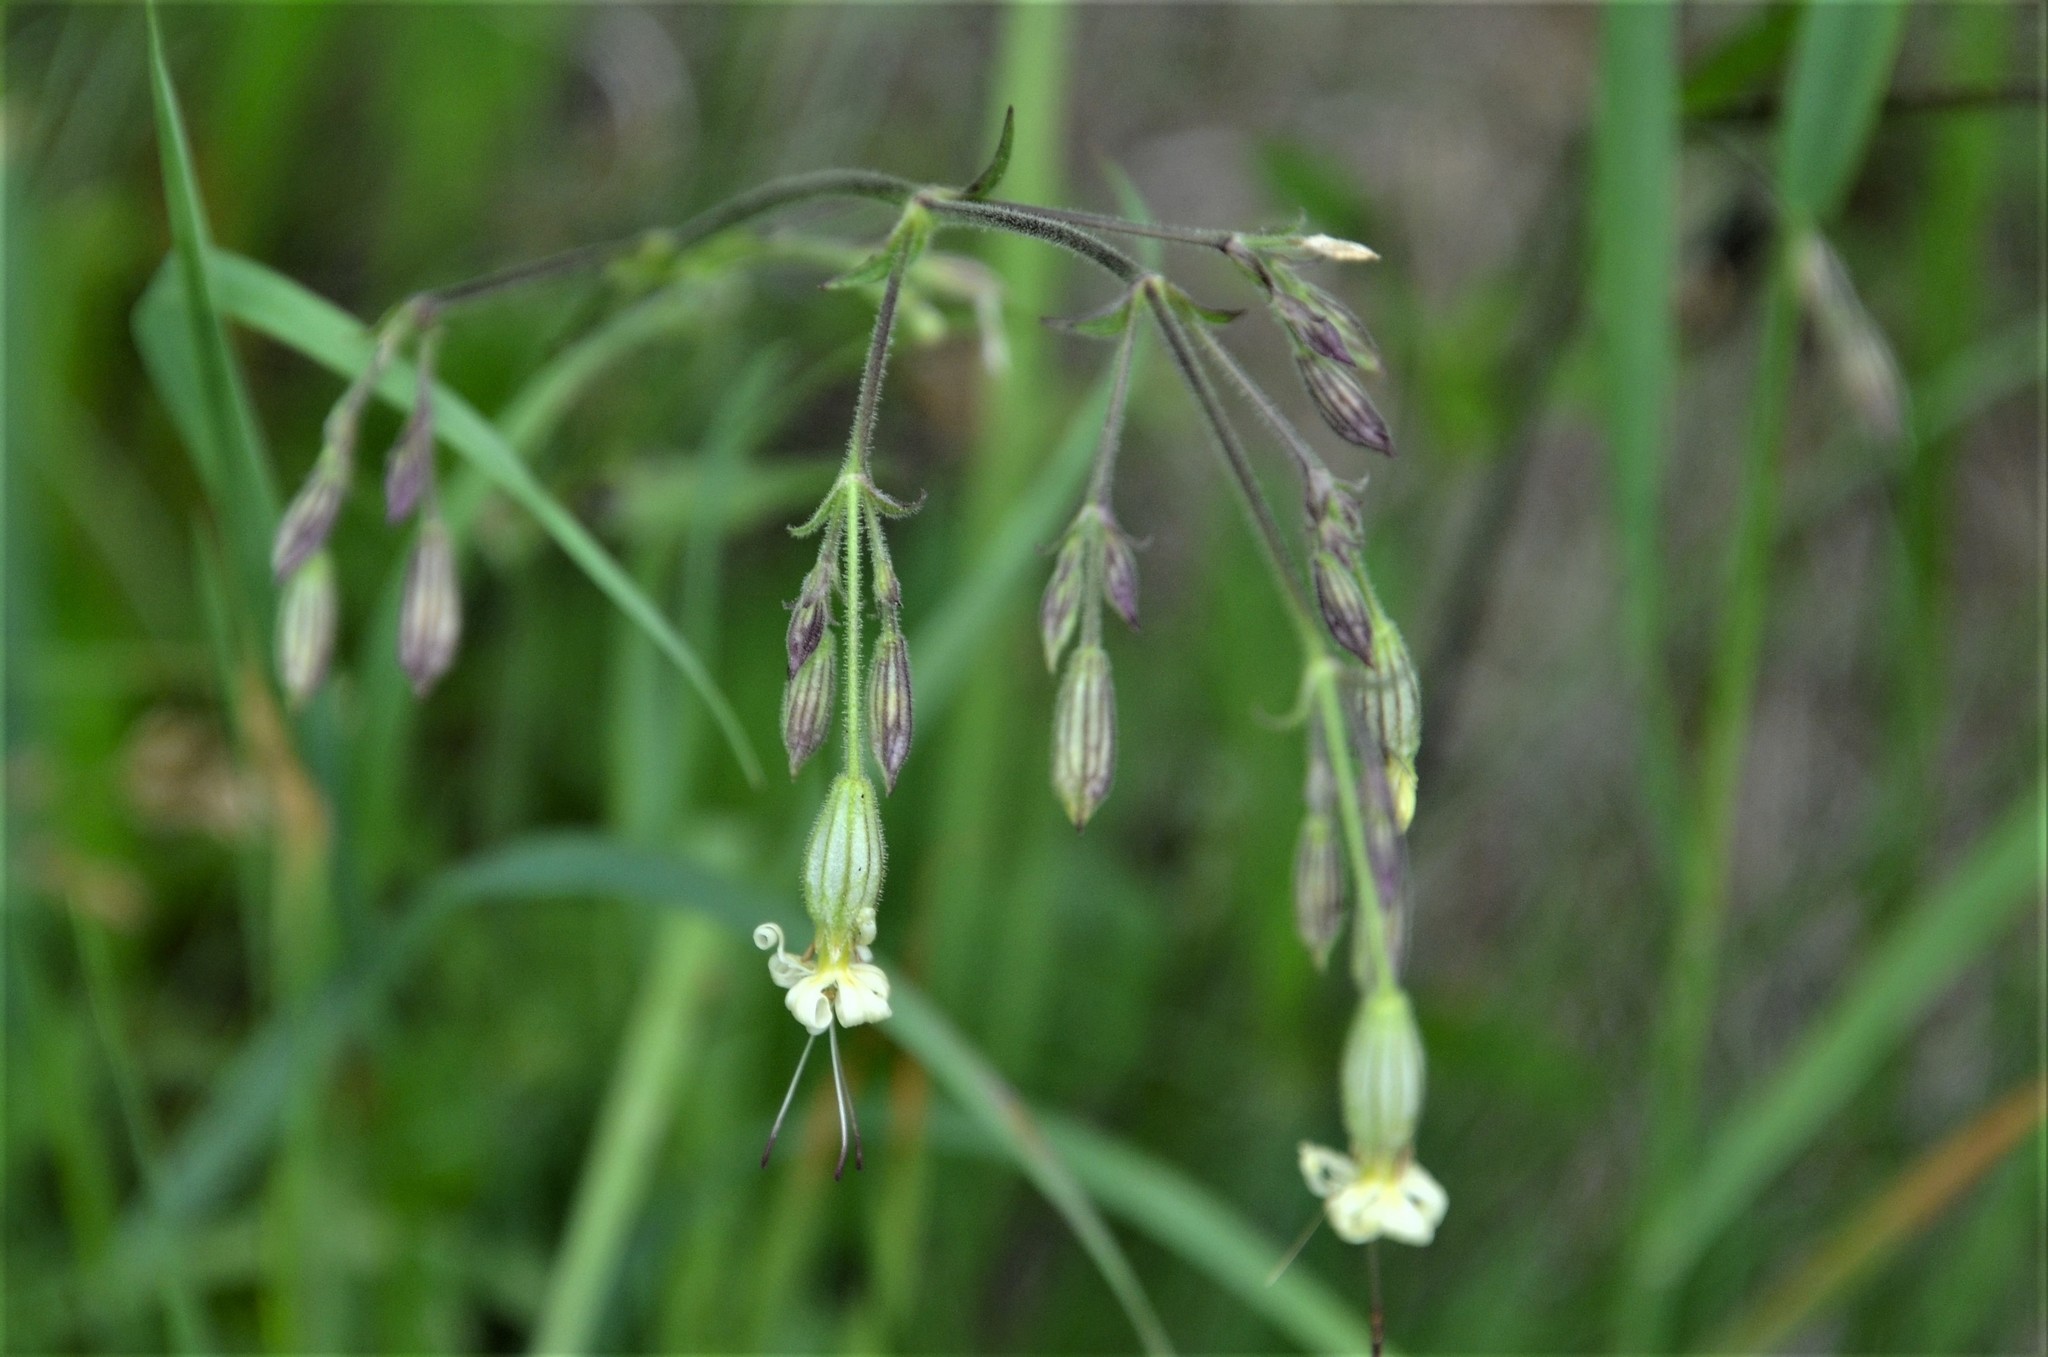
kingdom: Plantae
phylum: Tracheophyta
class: Magnoliopsida
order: Caryophyllales
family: Caryophyllaceae
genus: Silene
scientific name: Silene nutans
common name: Nottingham catchfly
